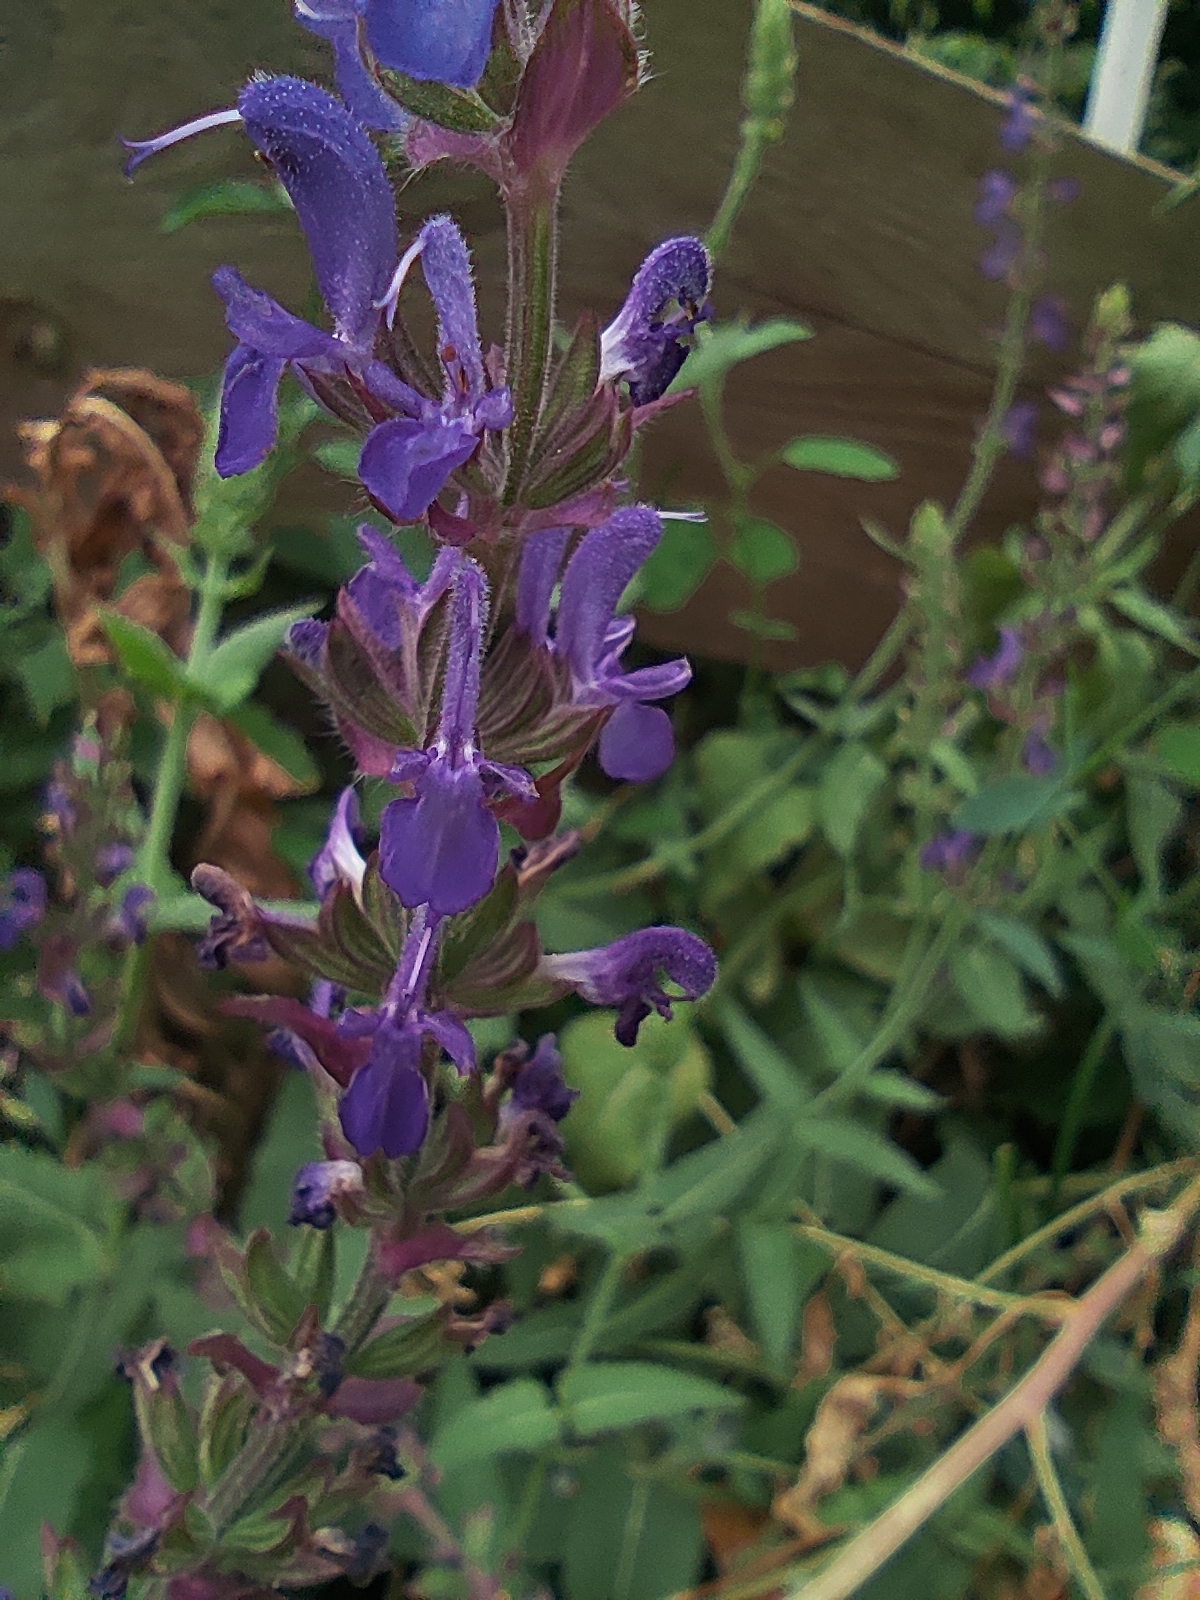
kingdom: Plantae
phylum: Tracheophyta
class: Magnoliopsida
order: Lamiales
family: Lamiaceae
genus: Salvia
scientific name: Salvia nemorosa
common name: Balkan clary
